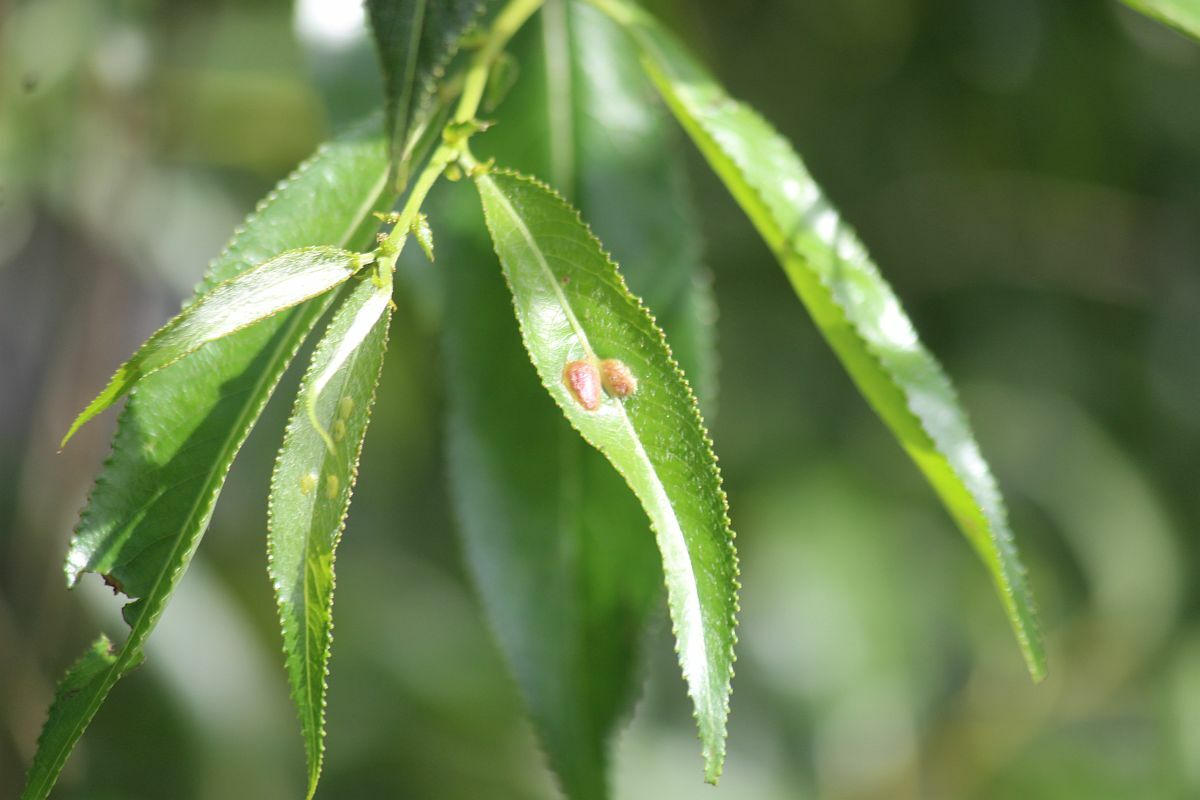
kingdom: Animalia
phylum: Arthropoda
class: Insecta
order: Hymenoptera
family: Tenthredinidae
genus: Pontania
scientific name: Pontania proxima
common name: Common sawfly
